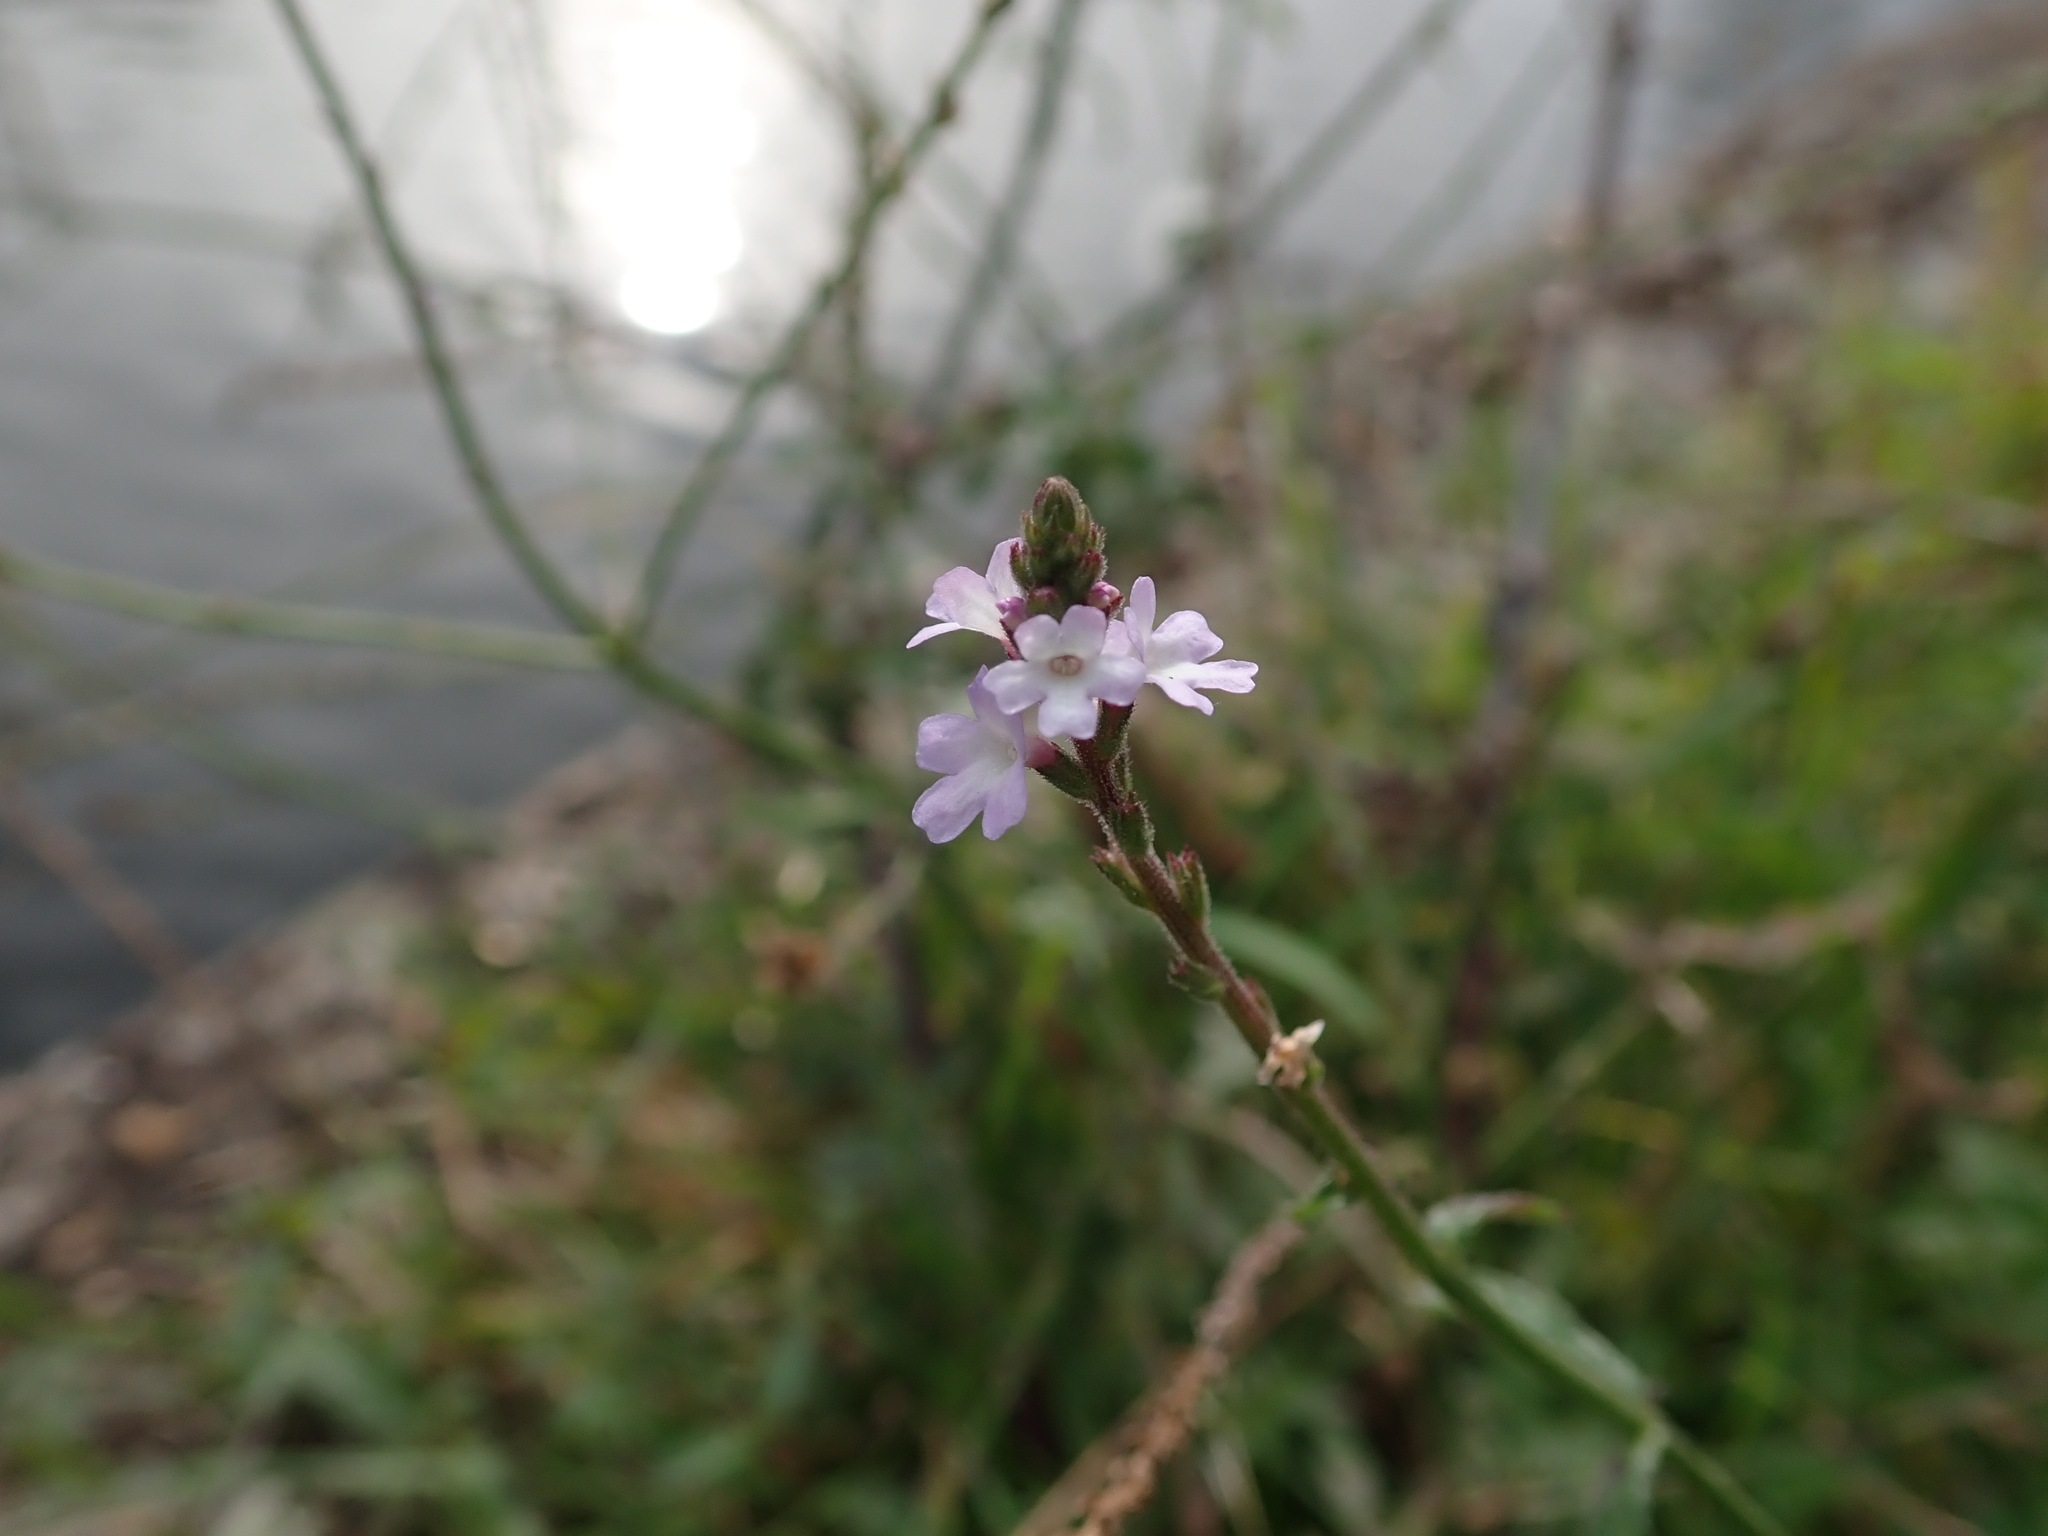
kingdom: Plantae
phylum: Tracheophyta
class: Magnoliopsida
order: Lamiales
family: Verbenaceae
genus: Verbena
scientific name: Verbena officinalis
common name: Vervain
